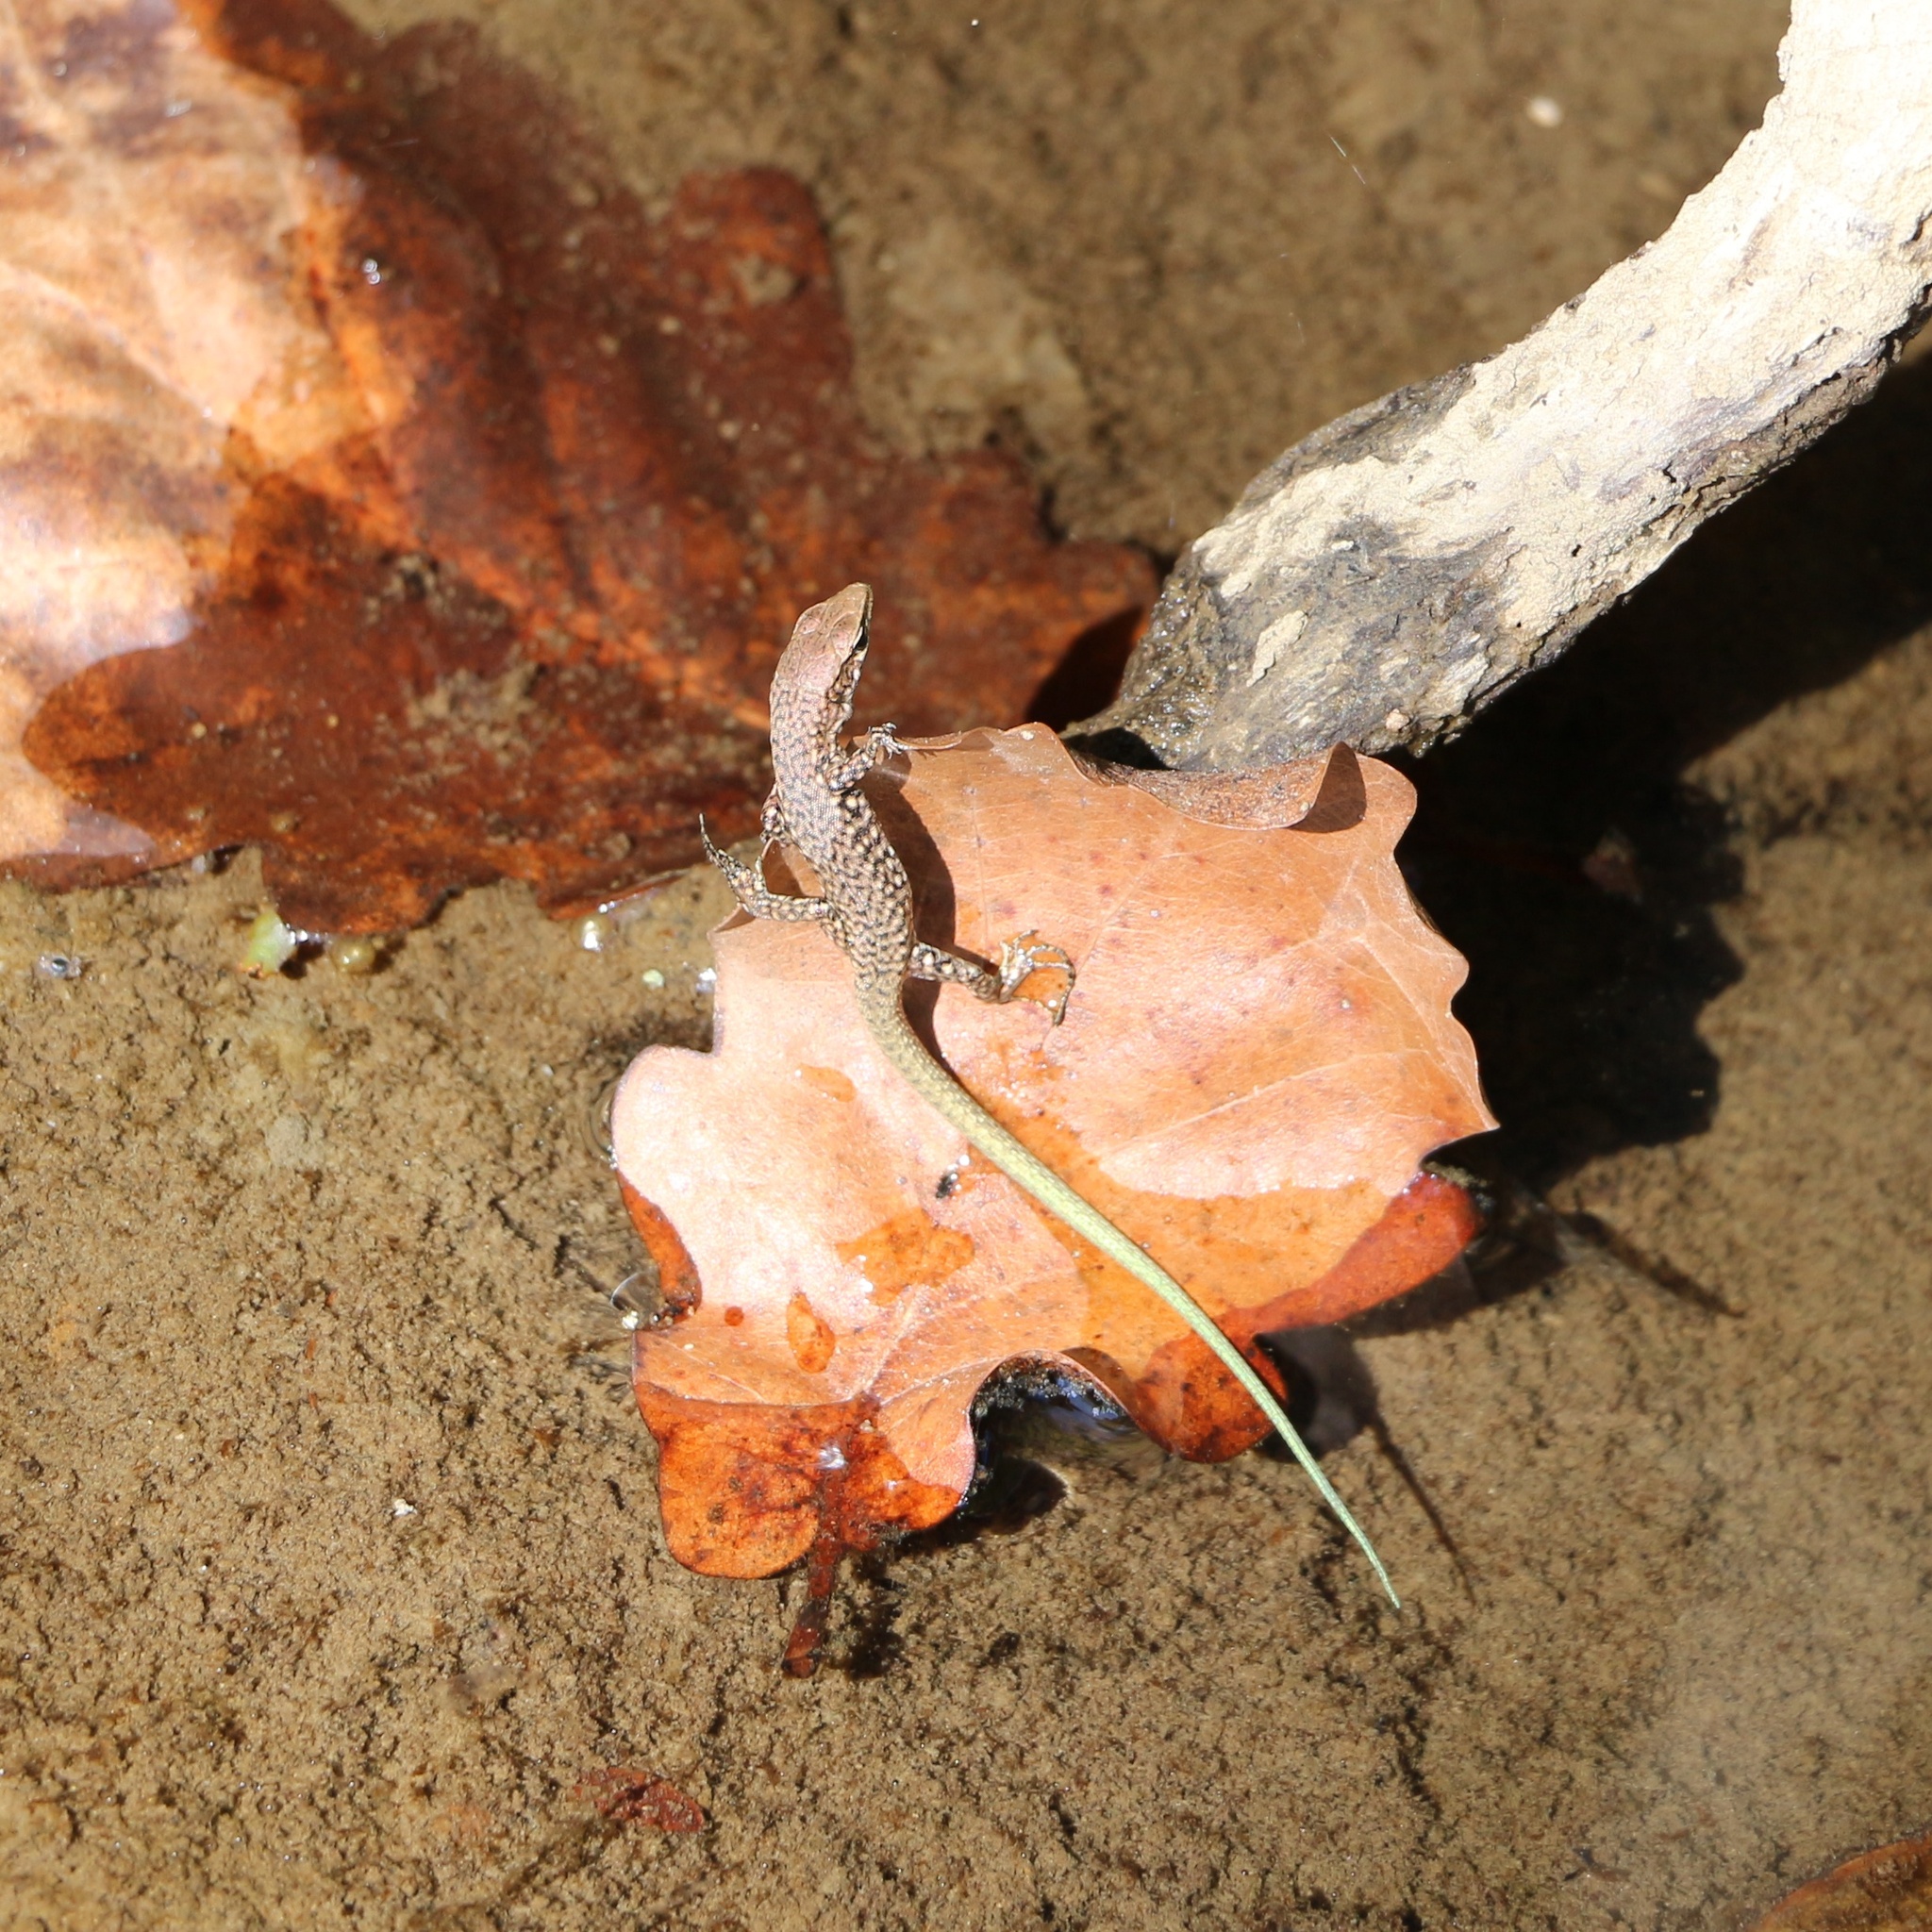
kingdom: Animalia
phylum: Chordata
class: Squamata
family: Lacertidae
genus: Darevskia
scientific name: Darevskia brauneri
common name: Brauner's rock lizard
